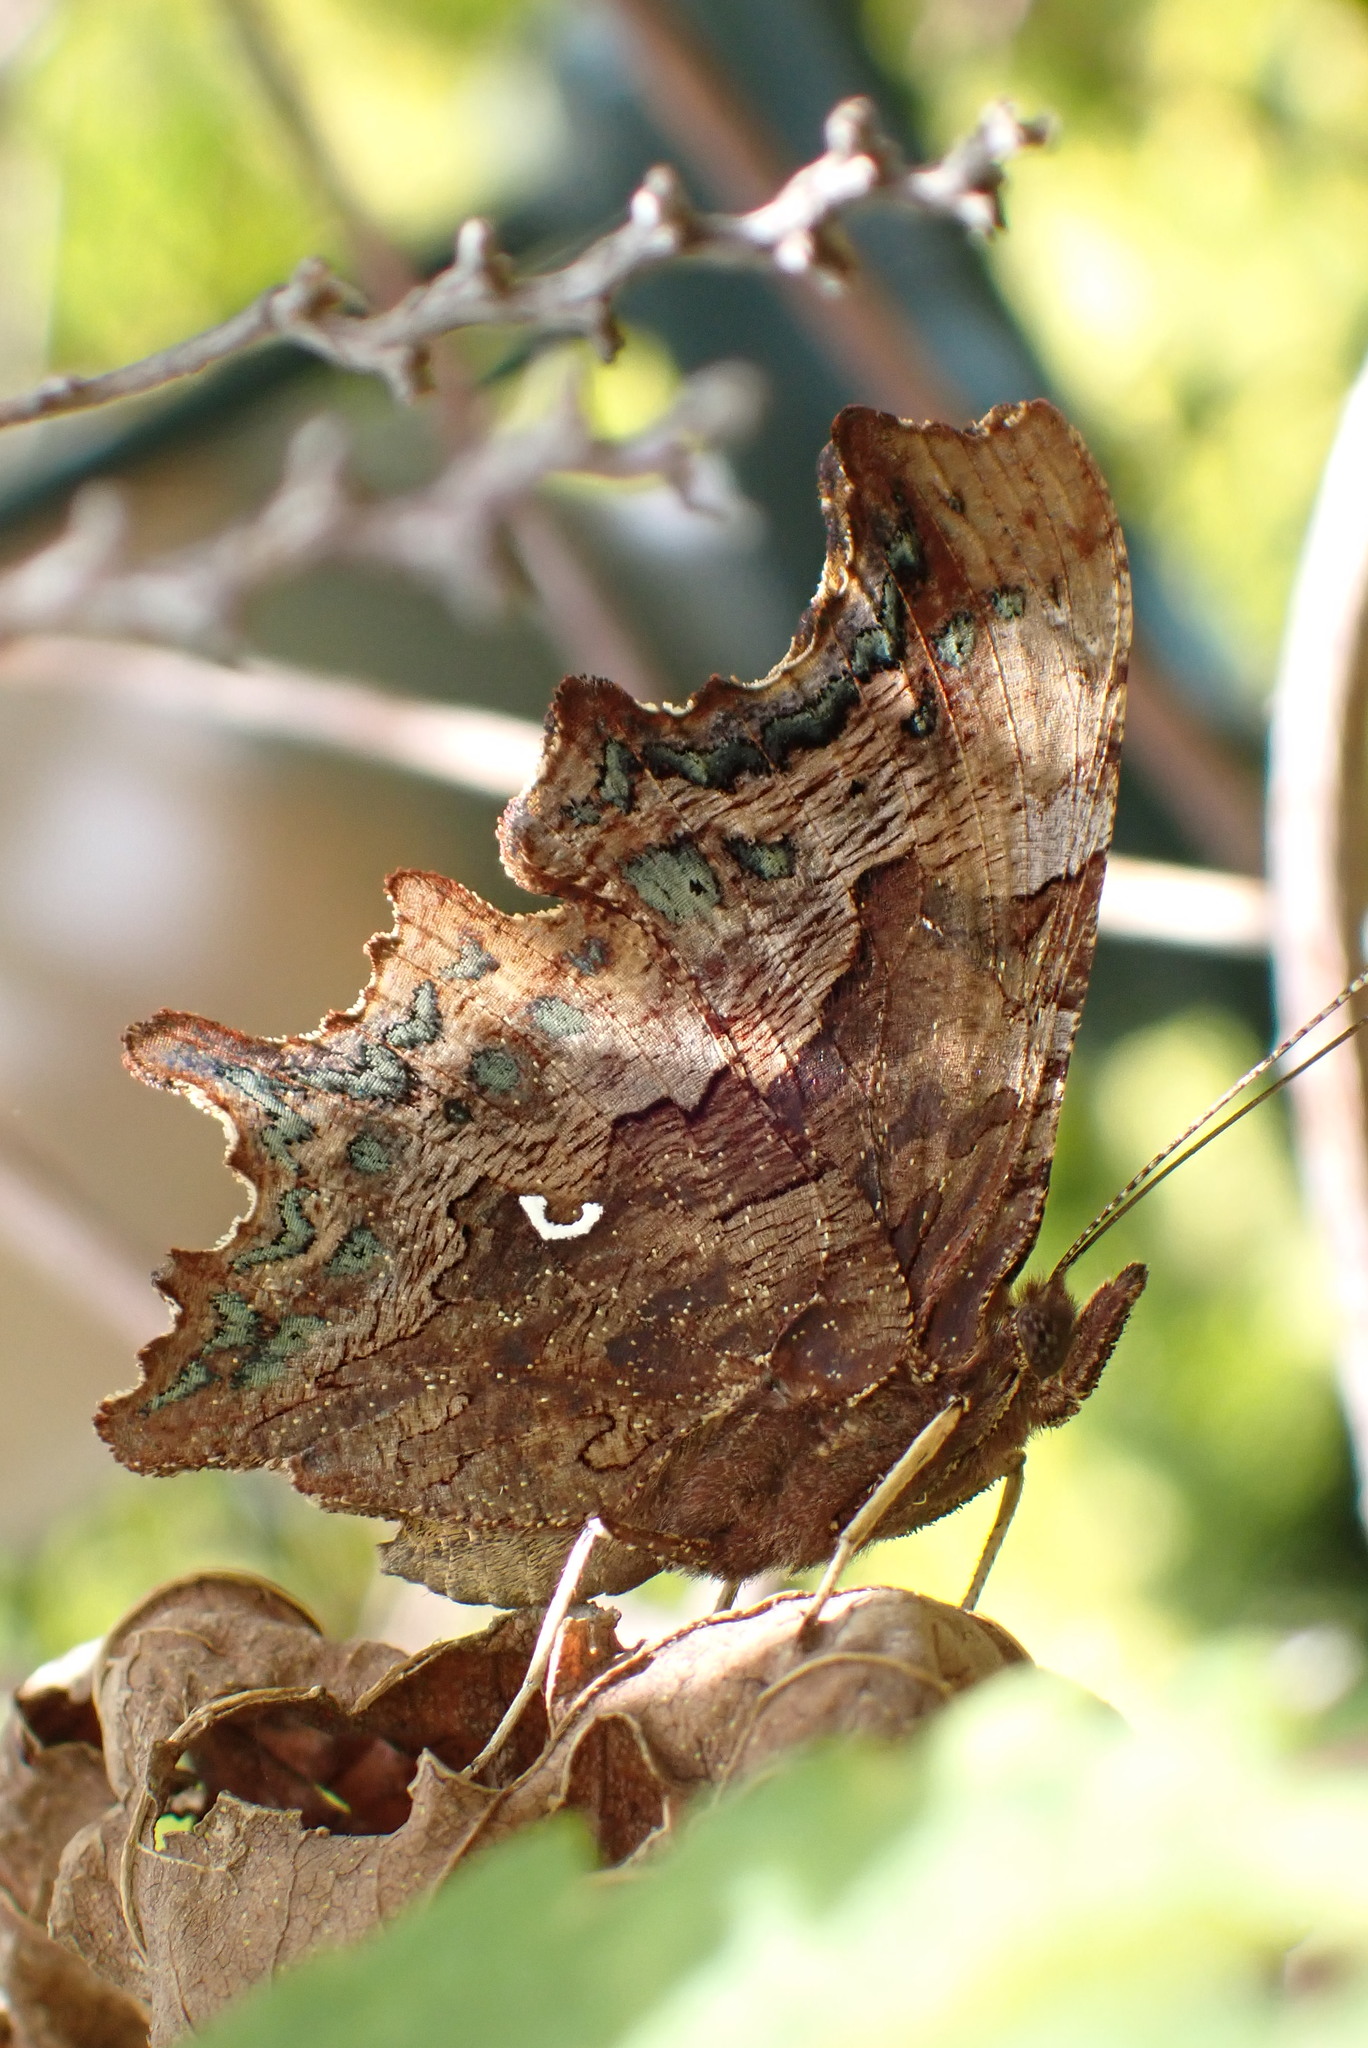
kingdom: Animalia
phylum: Arthropoda
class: Insecta
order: Lepidoptera
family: Nymphalidae
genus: Polygonia
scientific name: Polygonia c-album
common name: Comma
